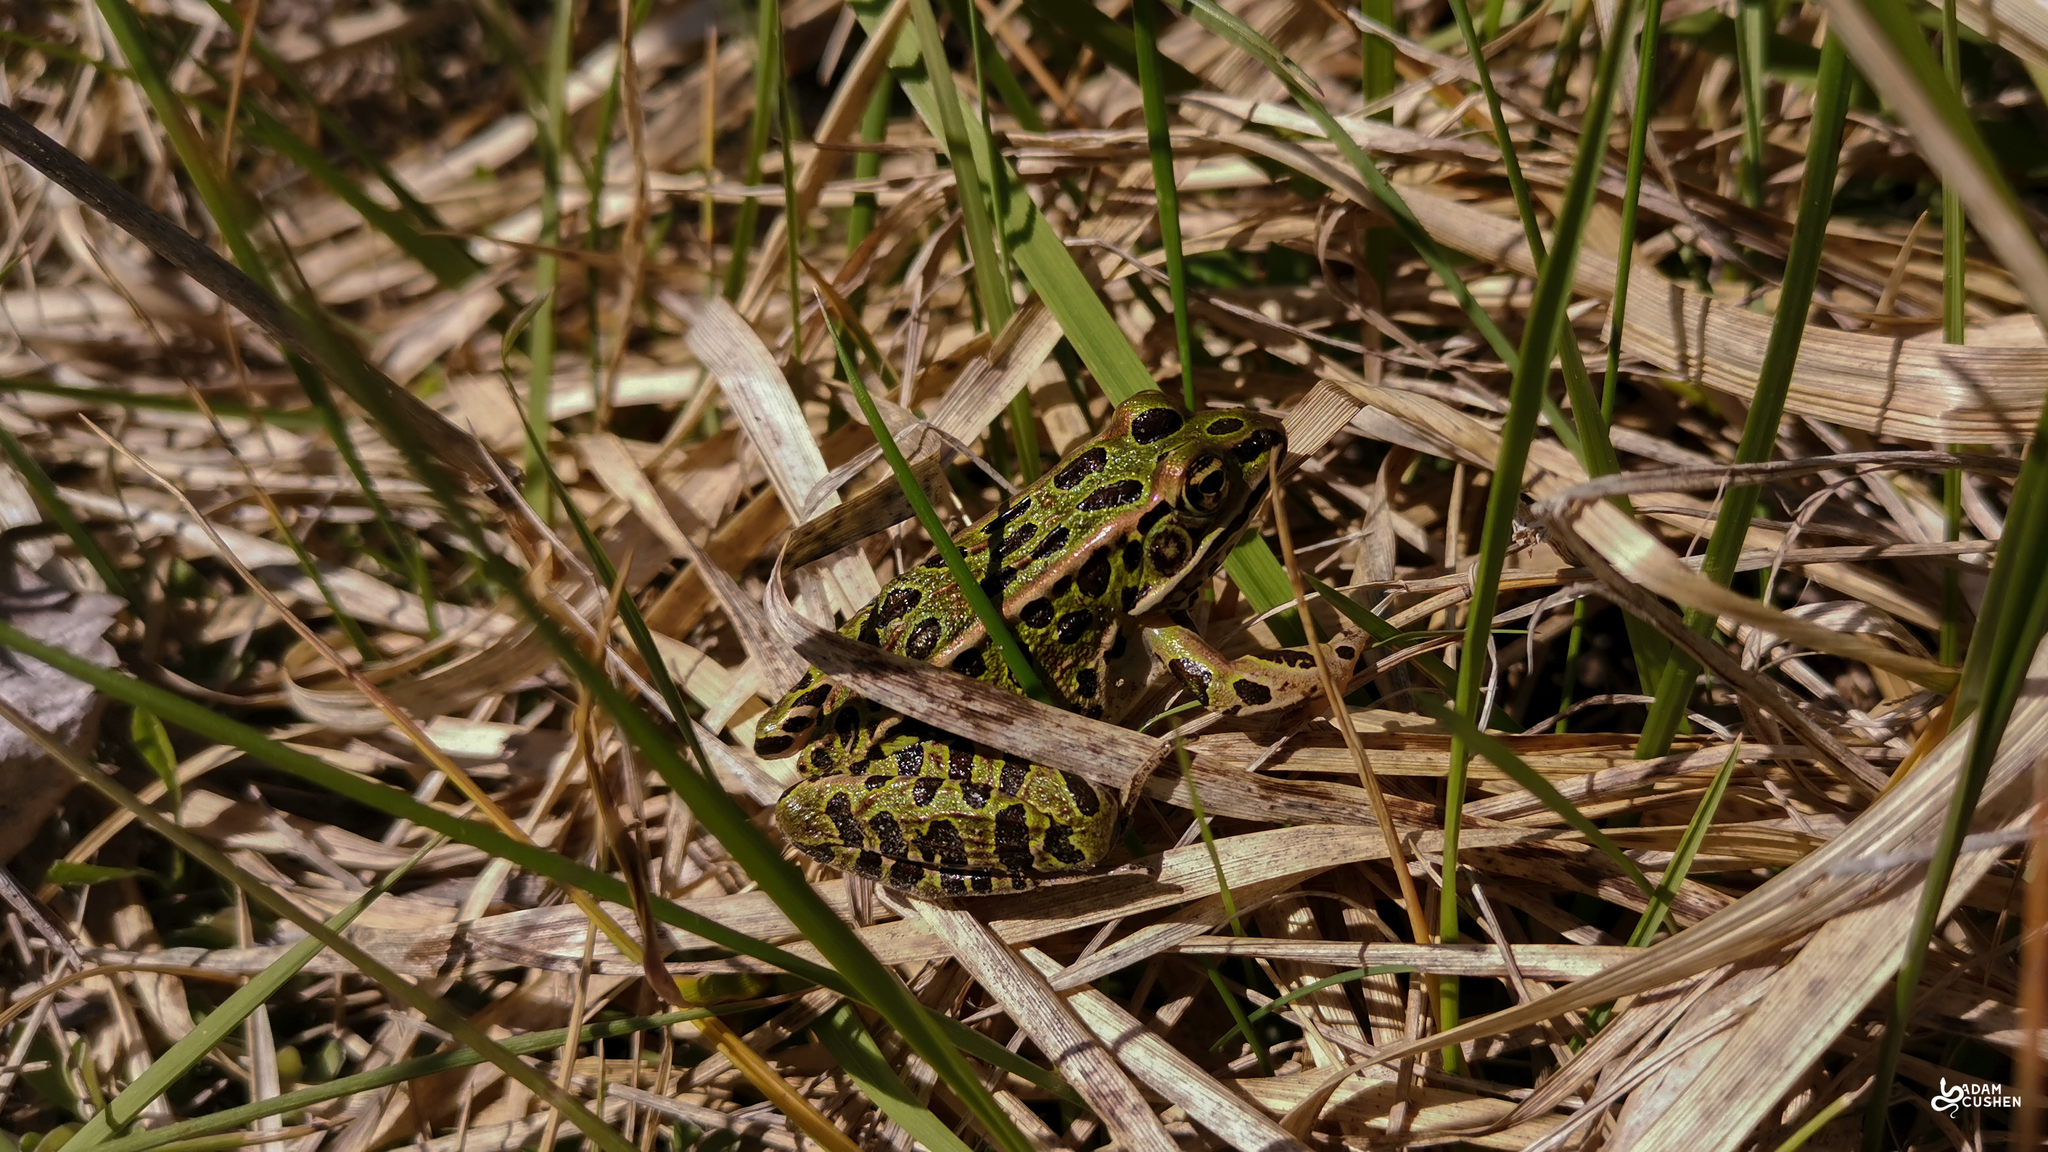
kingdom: Animalia
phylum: Chordata
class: Amphibia
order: Anura
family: Ranidae
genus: Lithobates
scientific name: Lithobates pipiens
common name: Northern leopard frog
